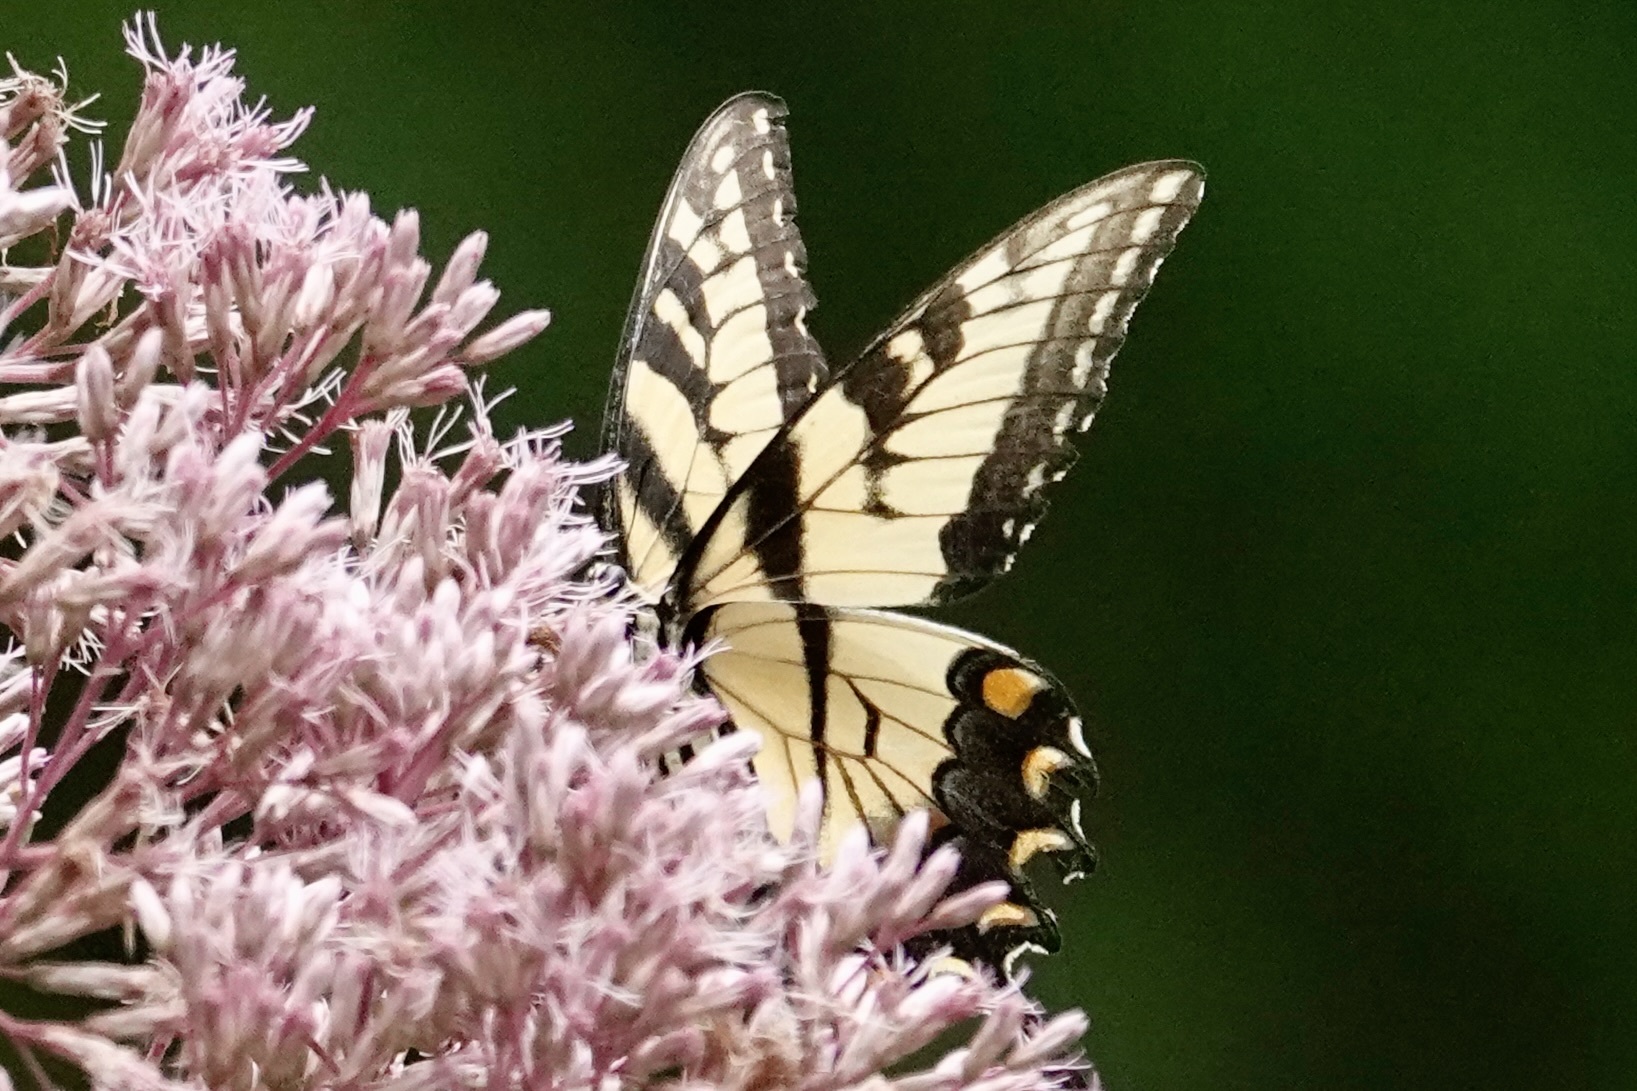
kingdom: Animalia
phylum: Arthropoda
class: Insecta
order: Lepidoptera
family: Papilionidae
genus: Papilio
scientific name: Papilio glaucus
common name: Tiger swallowtail
